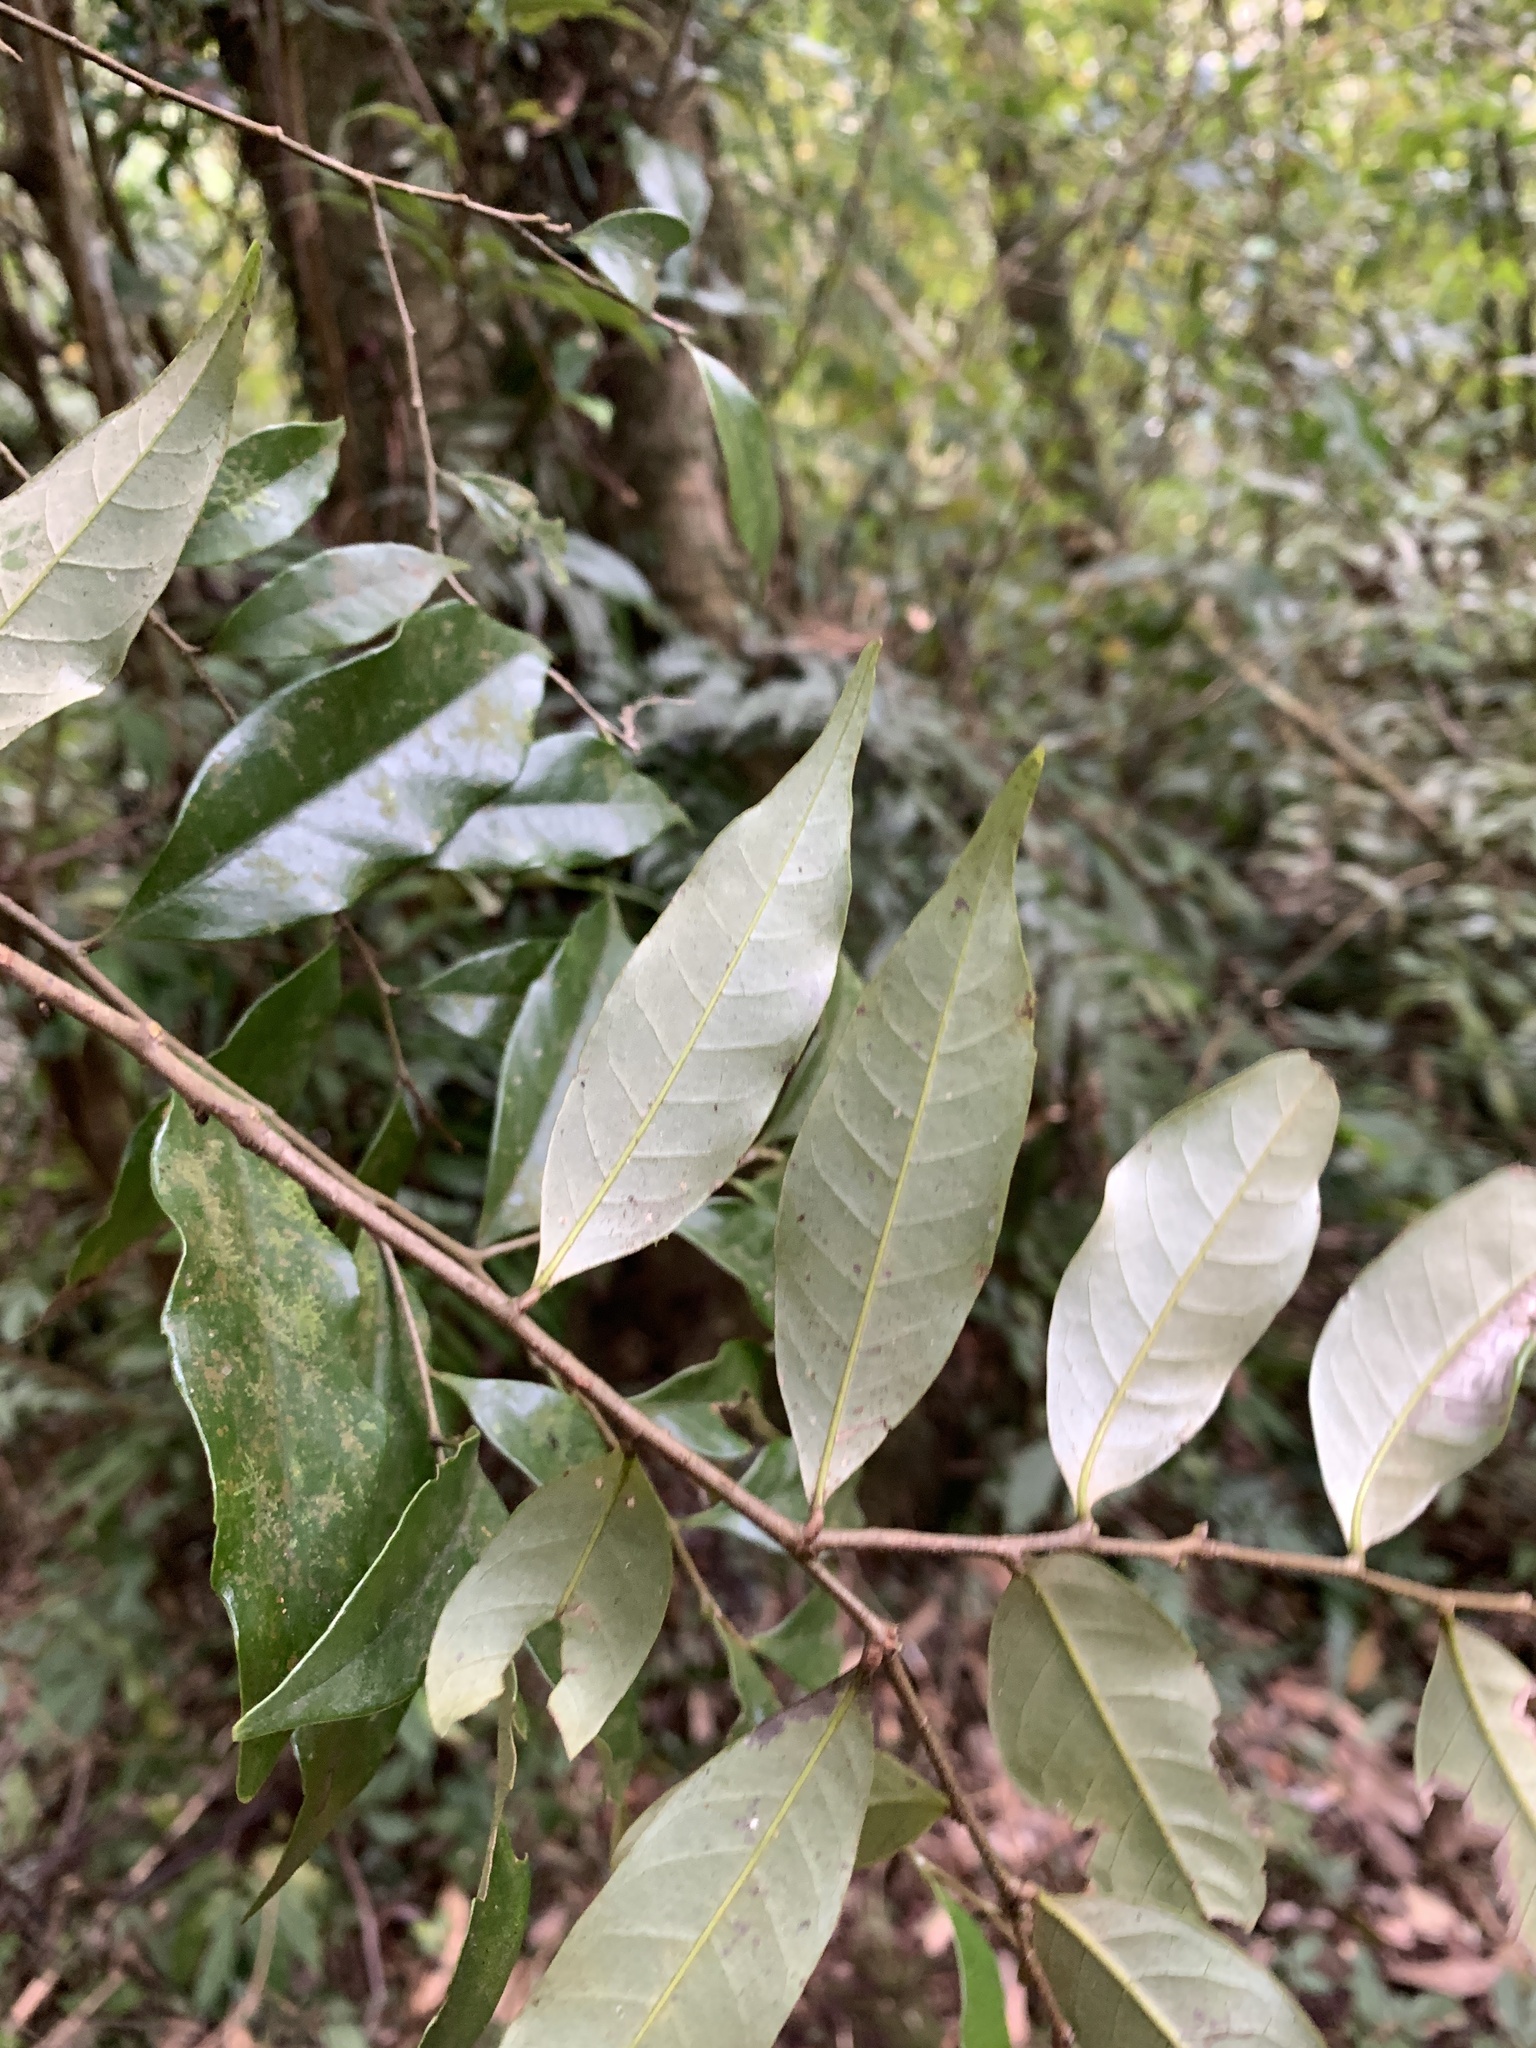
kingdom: Plantae
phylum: Tracheophyta
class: Magnoliopsida
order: Fagales
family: Fagaceae
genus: Castanopsis
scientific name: Castanopsis carlesii
